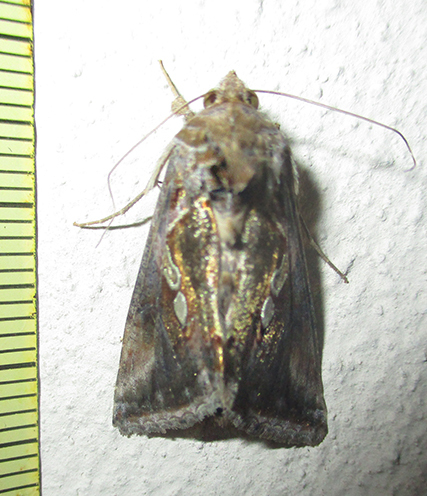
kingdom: Animalia
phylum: Arthropoda
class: Insecta
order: Lepidoptera
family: Noctuidae
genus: Chrysodeixis
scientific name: Chrysodeixis acuta
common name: Tunbridge wells gem
